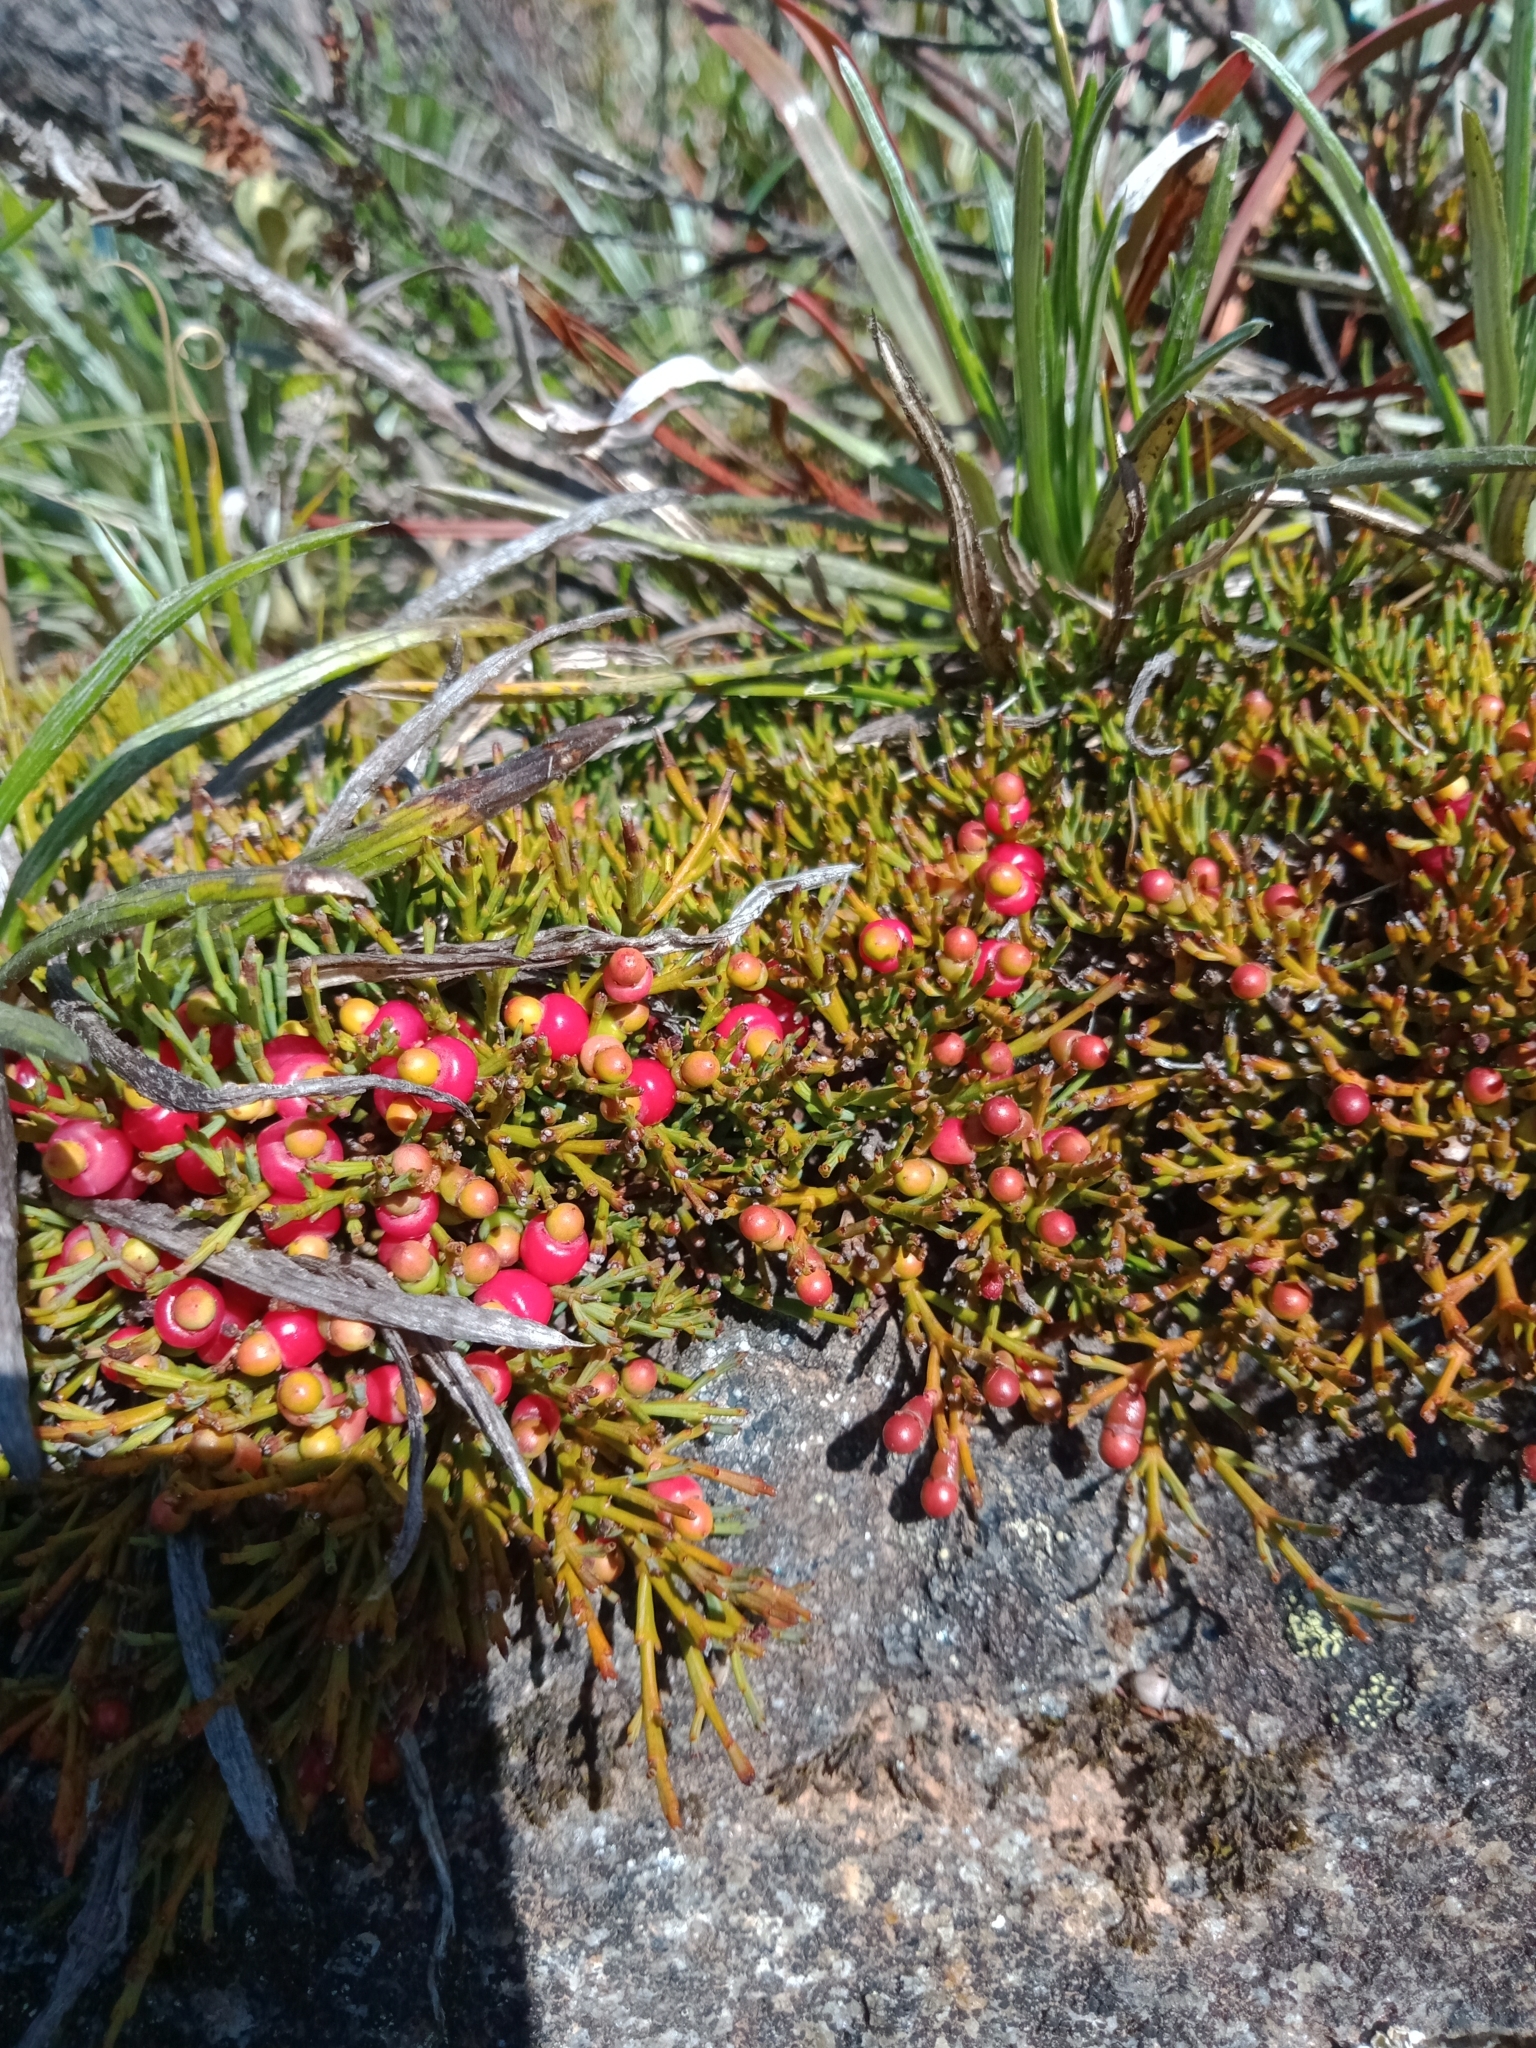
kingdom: Plantae
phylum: Tracheophyta
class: Magnoliopsida
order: Santalales
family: Santalaceae
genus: Exocarpos
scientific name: Exocarpos nanus
